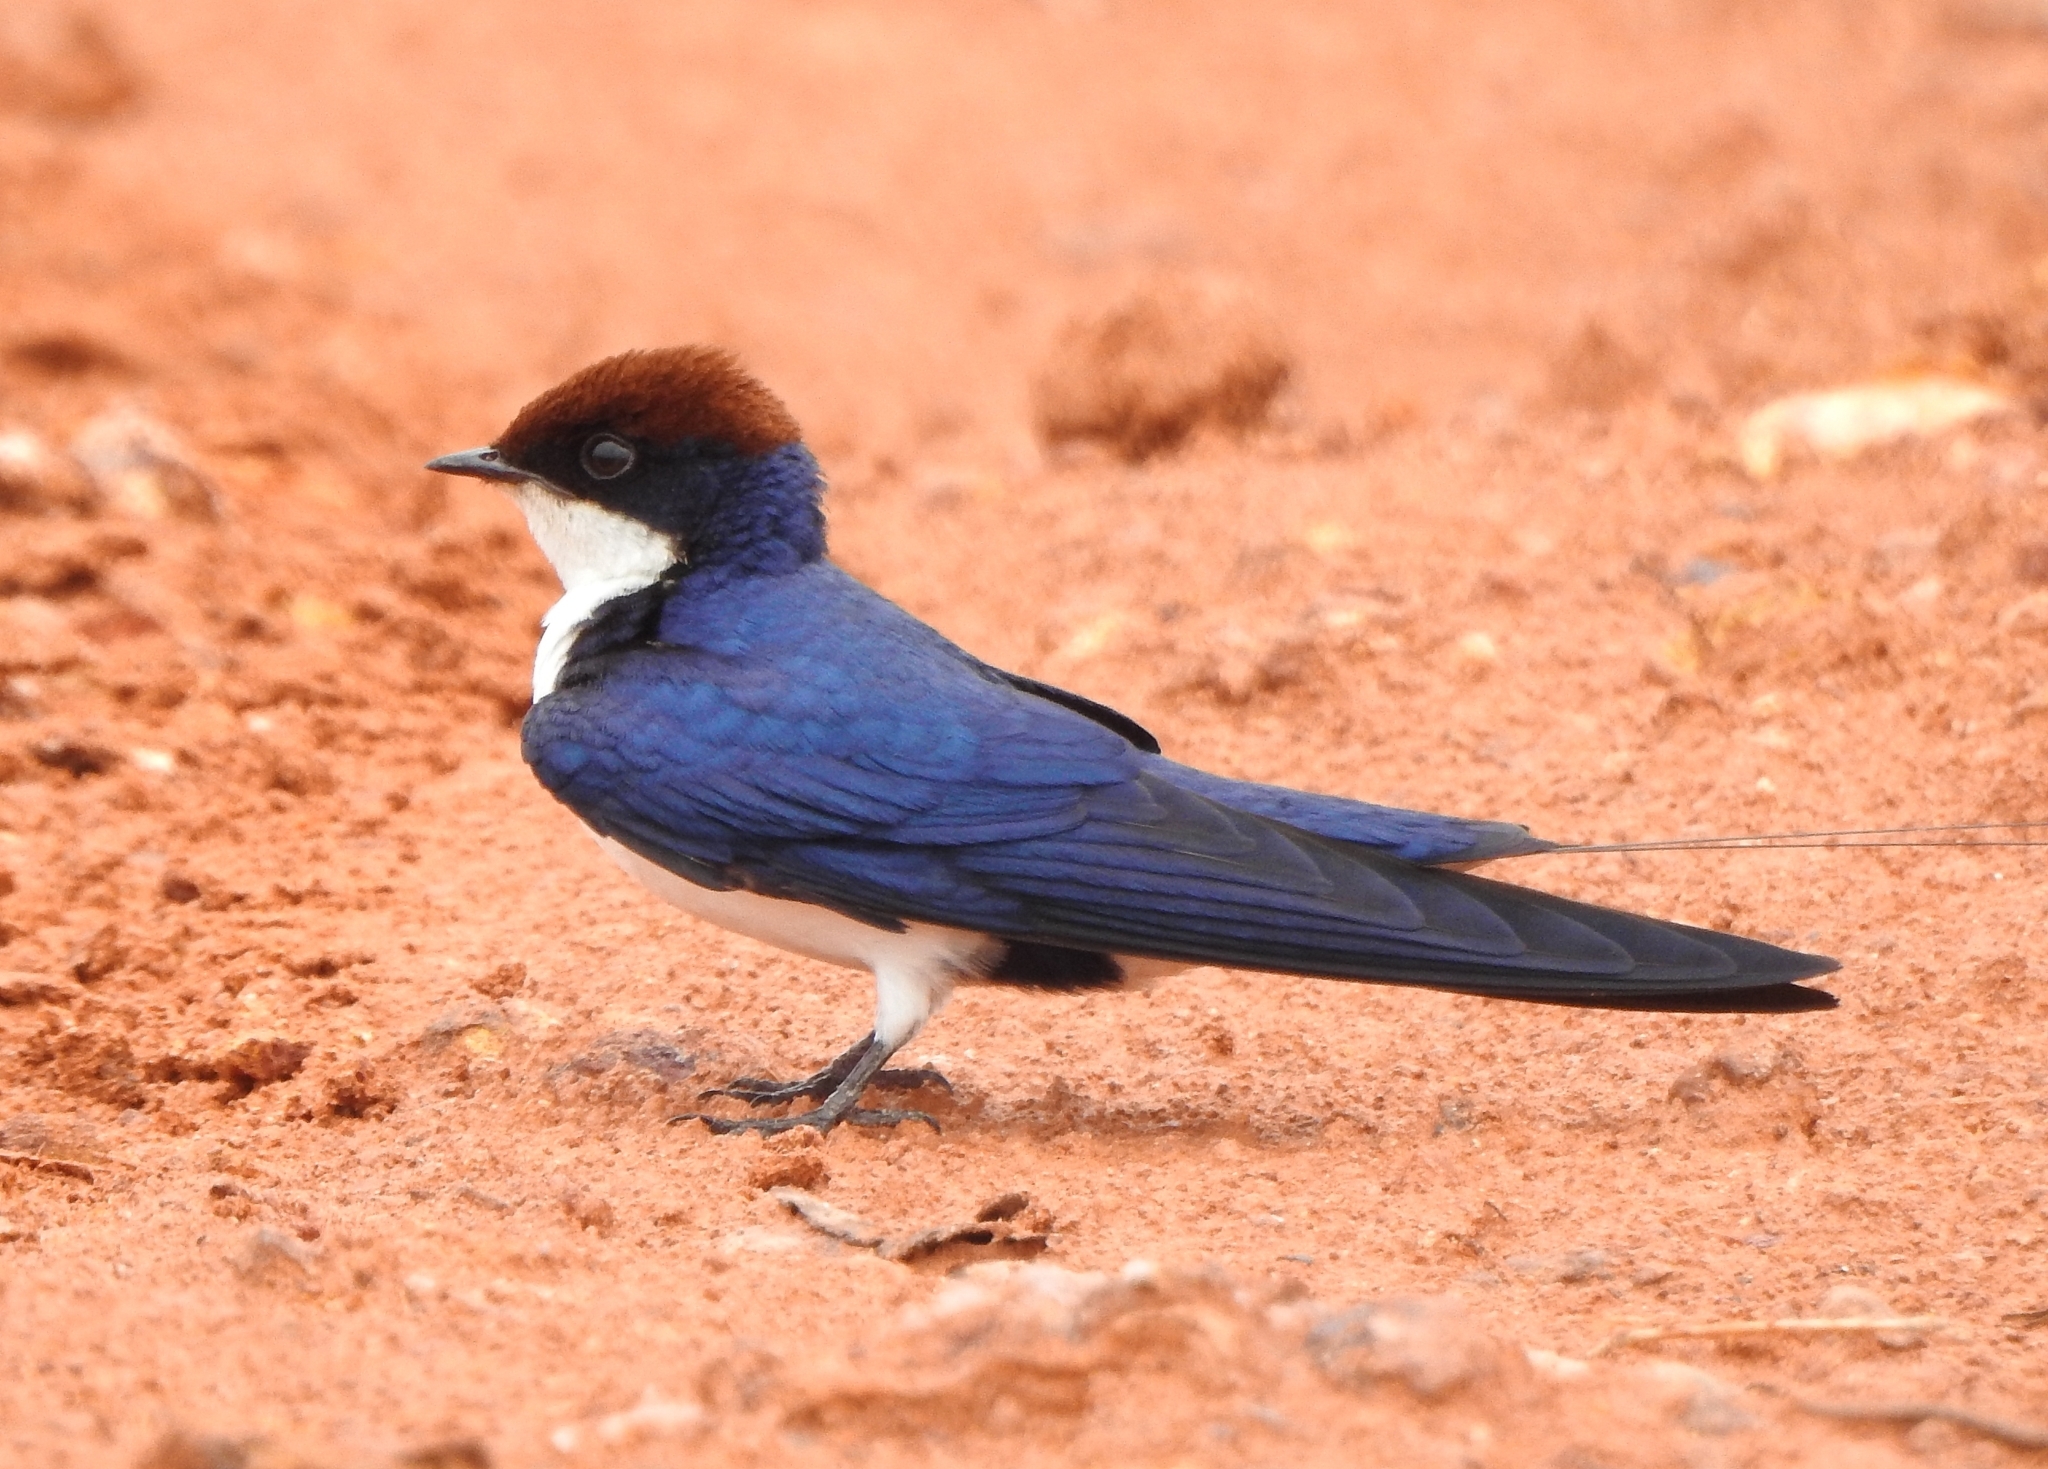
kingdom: Animalia
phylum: Chordata
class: Aves
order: Passeriformes
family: Hirundinidae
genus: Hirundo
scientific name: Hirundo smithii
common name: Wire-tailed swallow
